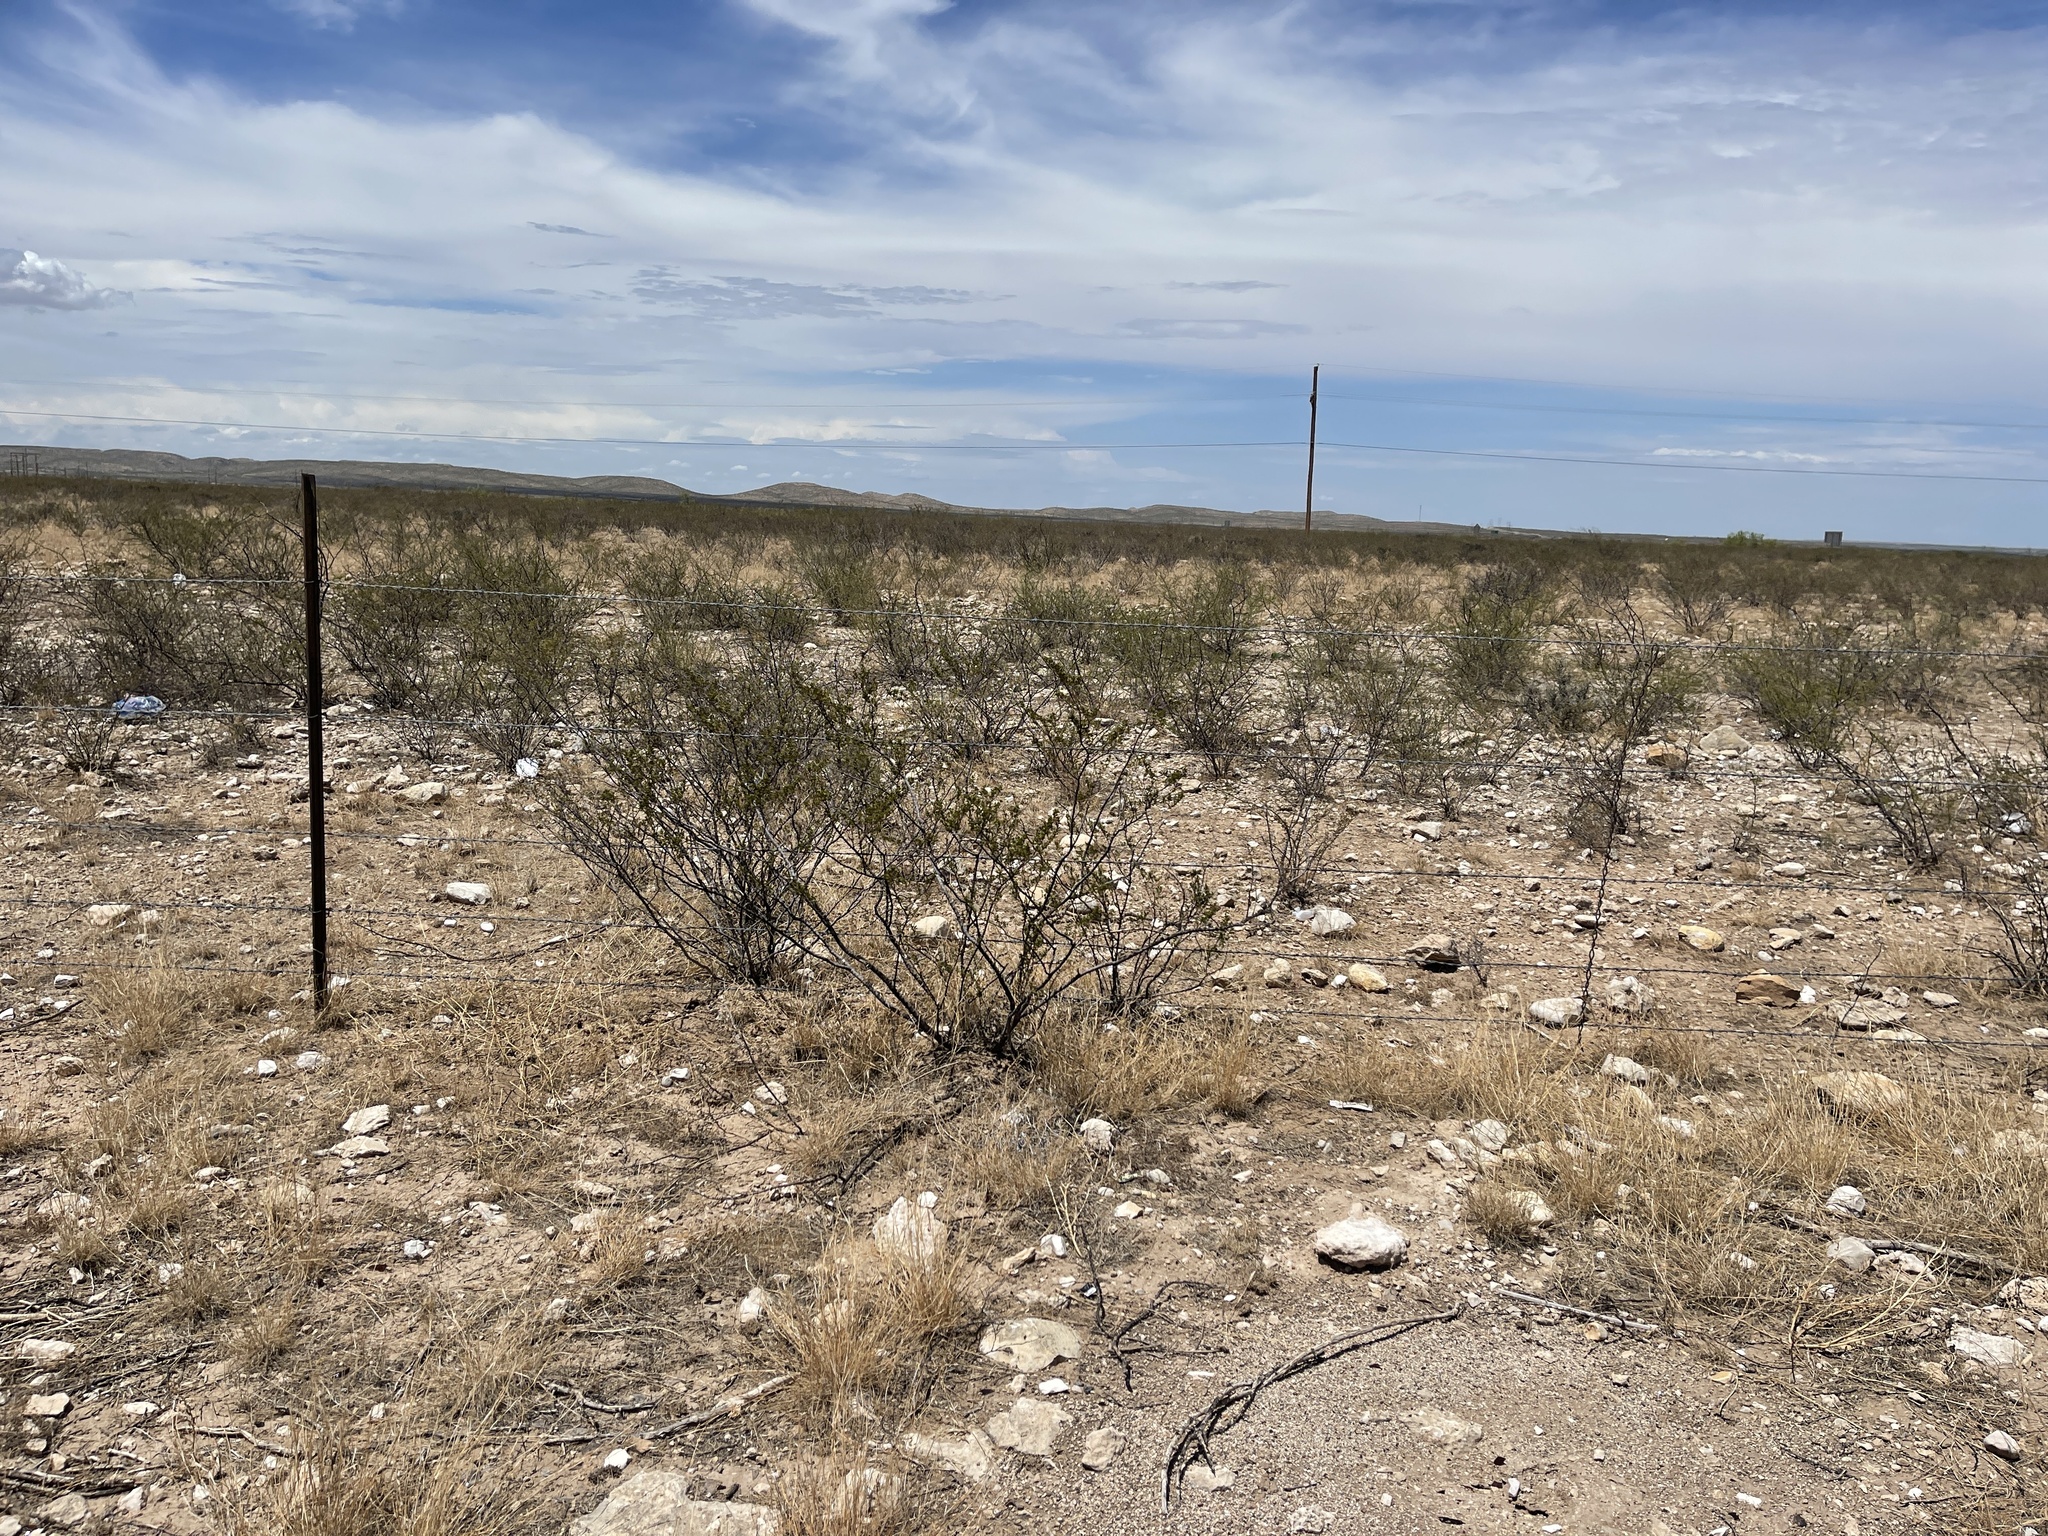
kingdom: Plantae
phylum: Tracheophyta
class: Magnoliopsida
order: Zygophyllales
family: Zygophyllaceae
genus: Larrea
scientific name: Larrea tridentata
